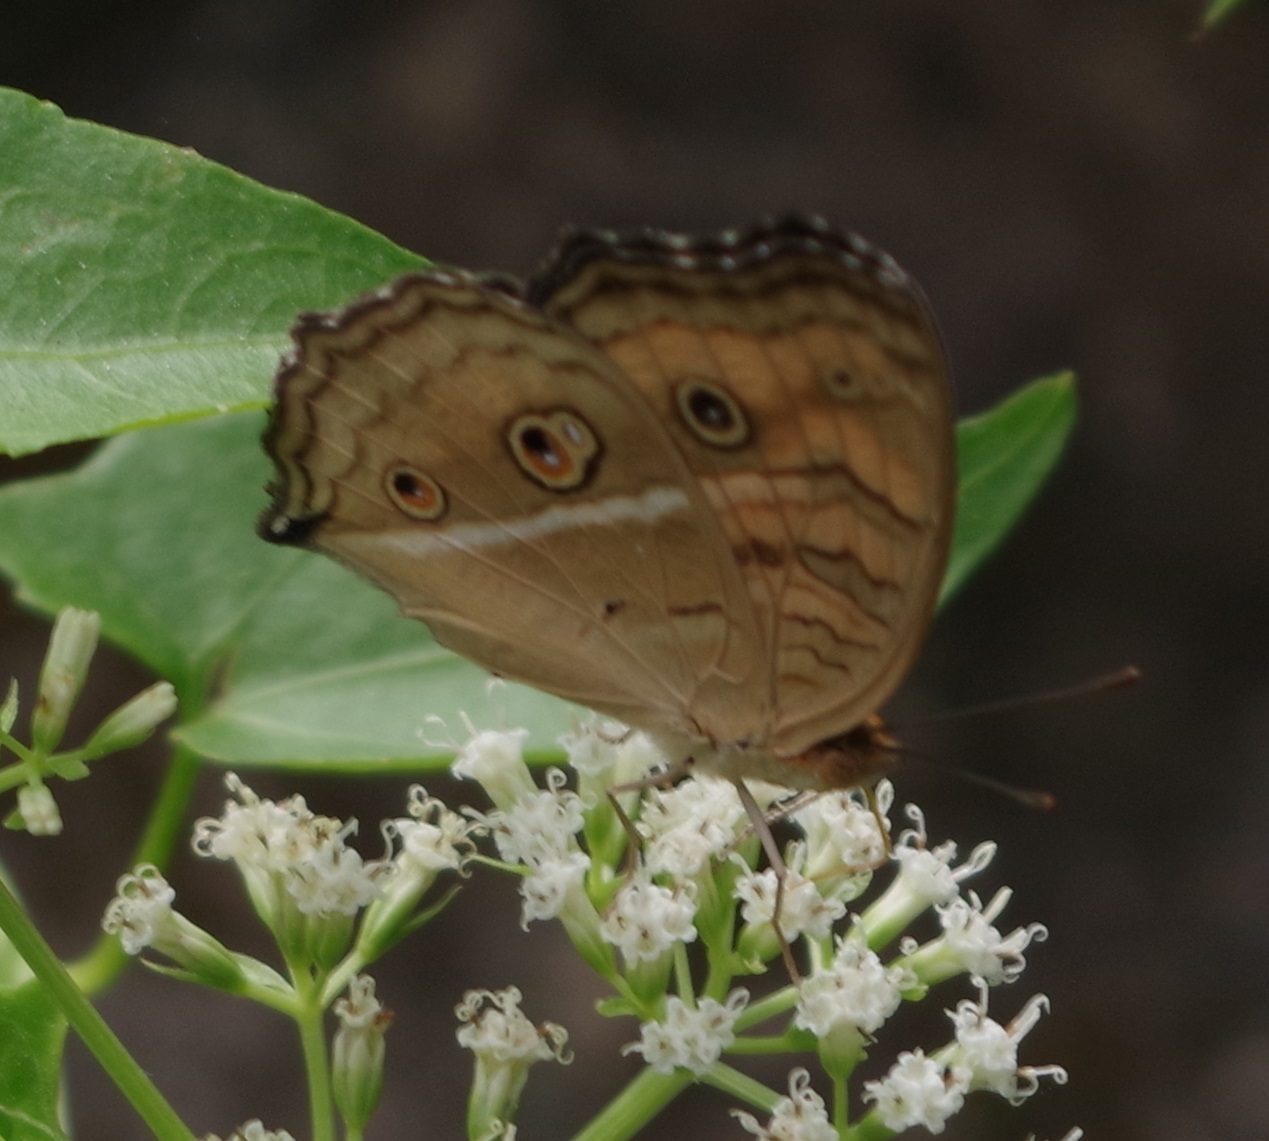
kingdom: Animalia
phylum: Arthropoda
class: Insecta
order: Lepidoptera
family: Nymphalidae
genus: Junonia
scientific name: Junonia almana
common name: Peacock pansy
